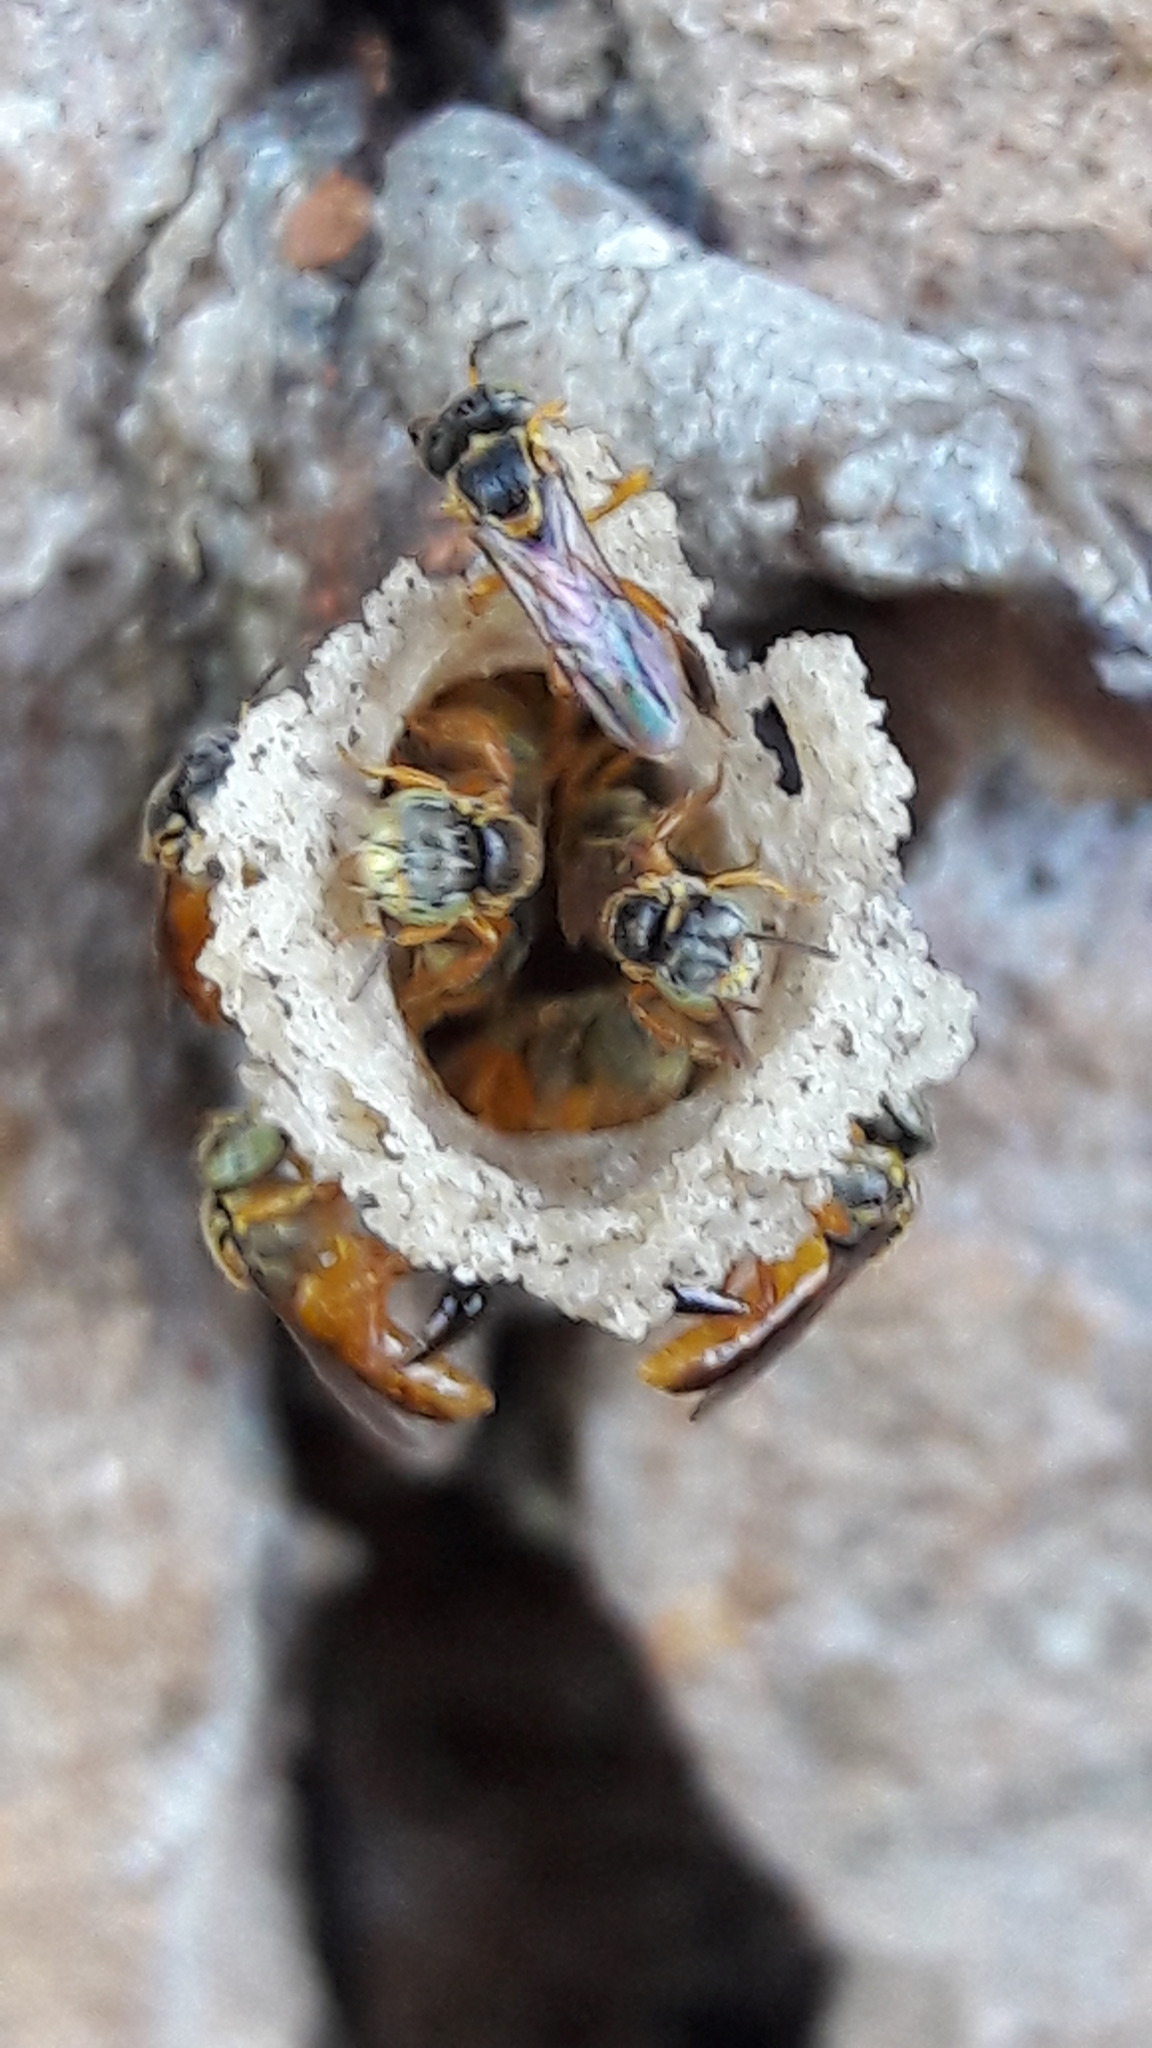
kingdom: Animalia
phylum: Arthropoda
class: Insecta
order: Hymenoptera
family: Apidae
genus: Tetragonisca
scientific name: Tetragonisca angustula
